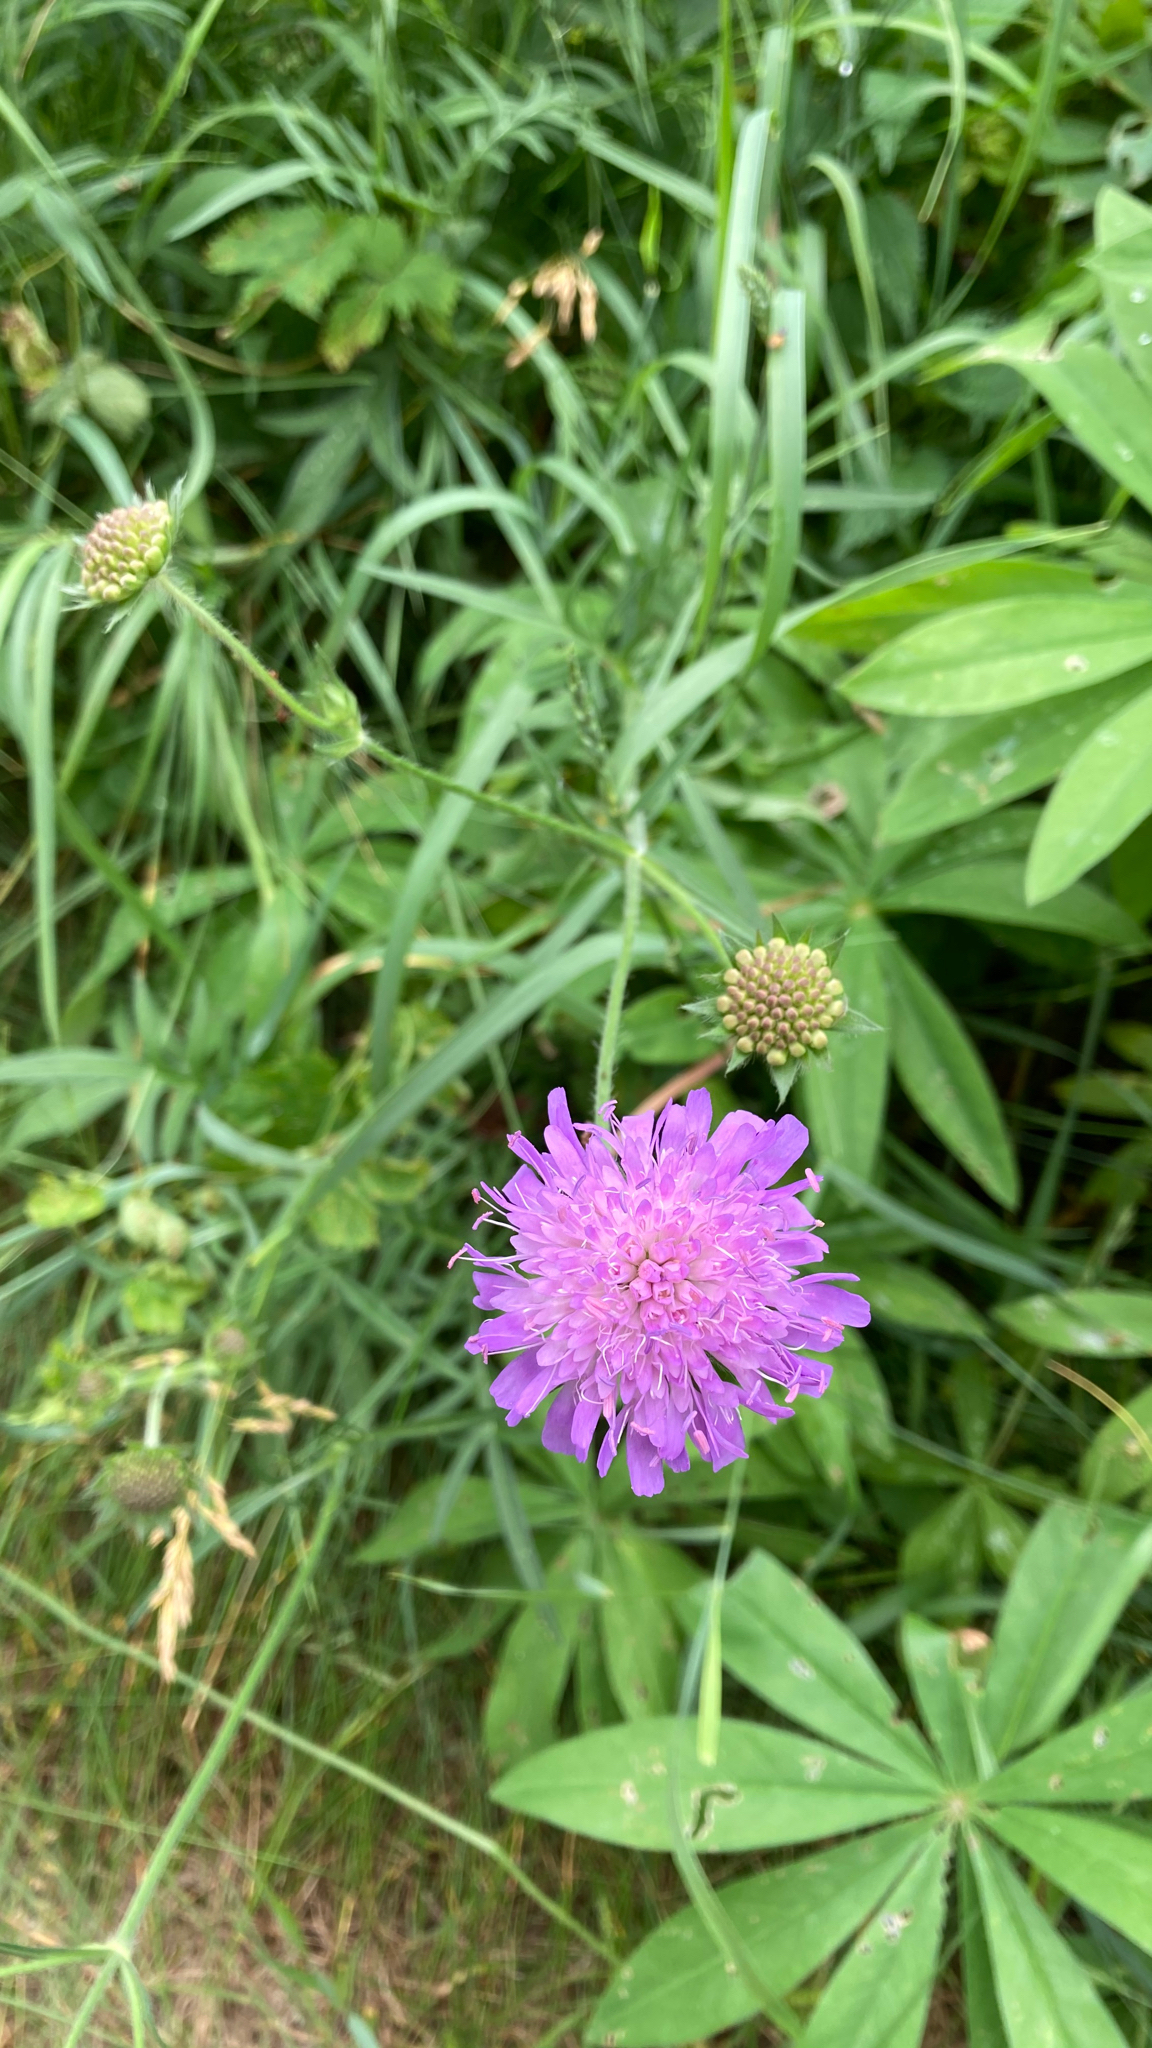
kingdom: Plantae
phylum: Tracheophyta
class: Magnoliopsida
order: Dipsacales
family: Caprifoliaceae
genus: Knautia
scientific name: Knautia arvensis
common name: Field scabiosa
